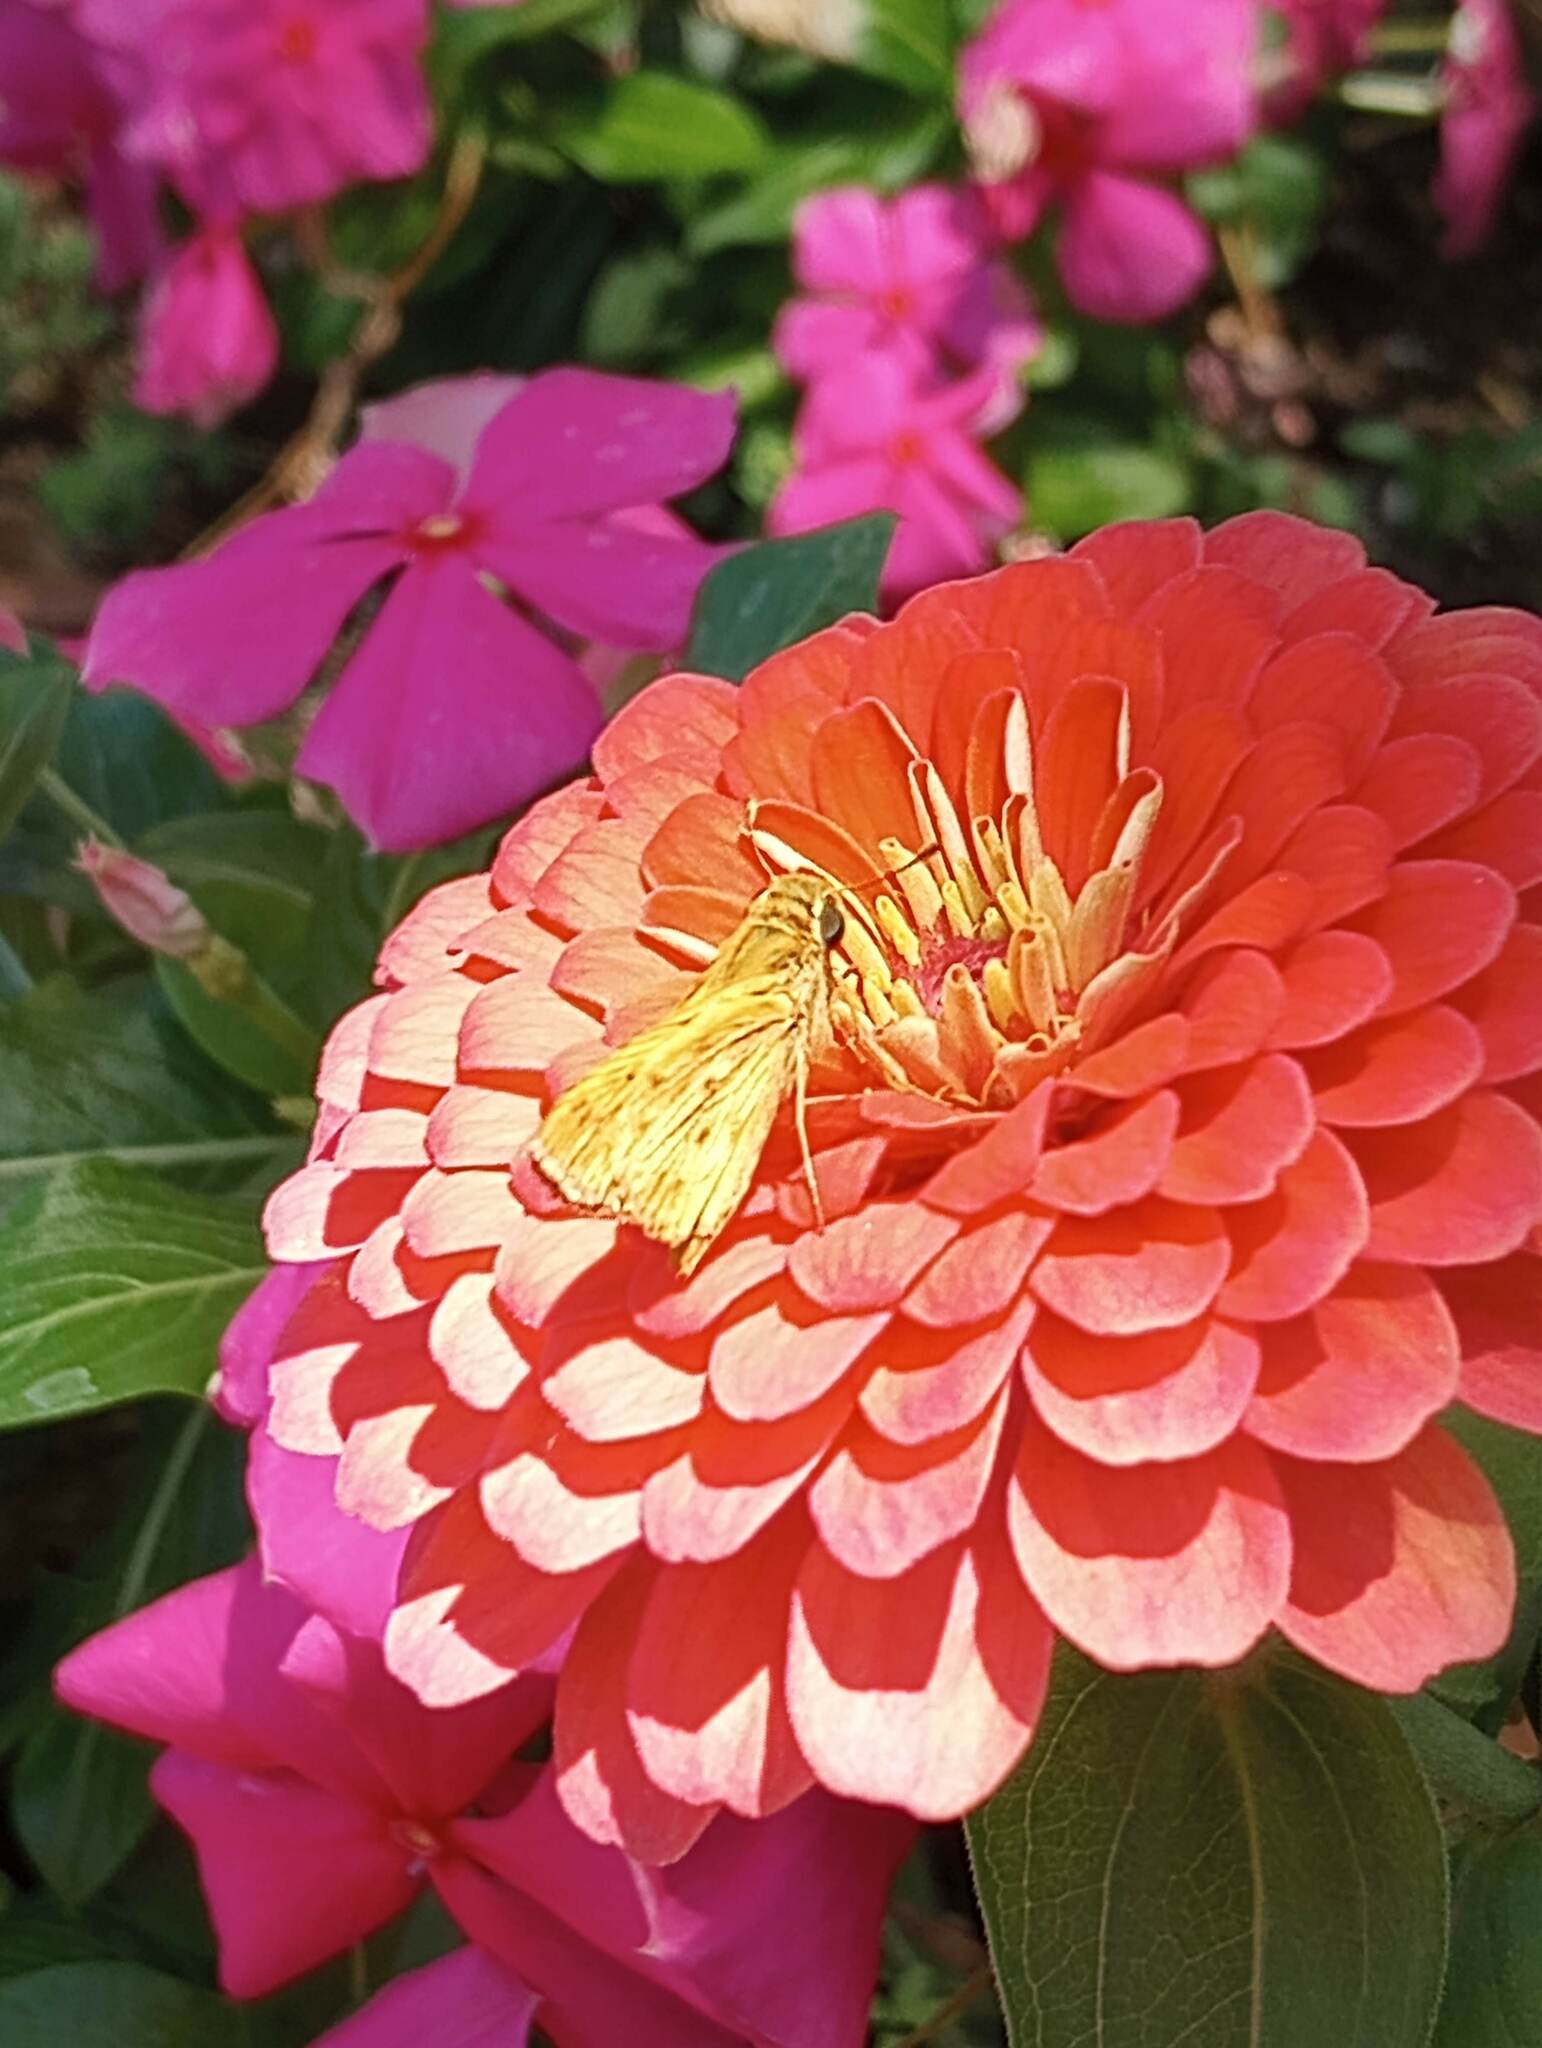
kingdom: Animalia
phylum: Arthropoda
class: Insecta
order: Lepidoptera
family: Hesperiidae
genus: Hylephila
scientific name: Hylephila phyleus
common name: Fiery skipper
